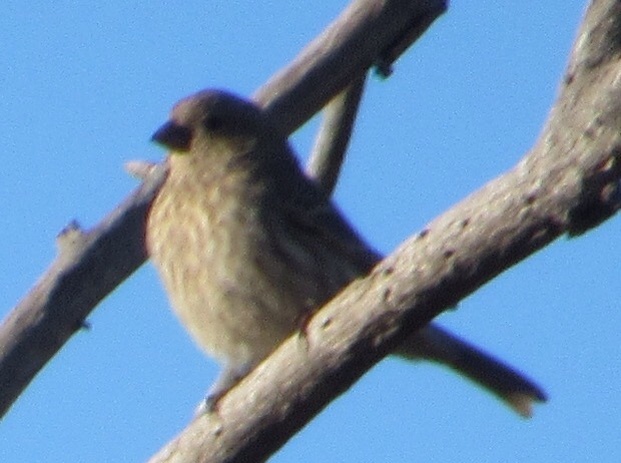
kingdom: Animalia
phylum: Chordata
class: Aves
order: Passeriformes
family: Fringillidae
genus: Haemorhous
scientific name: Haemorhous mexicanus
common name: House finch
